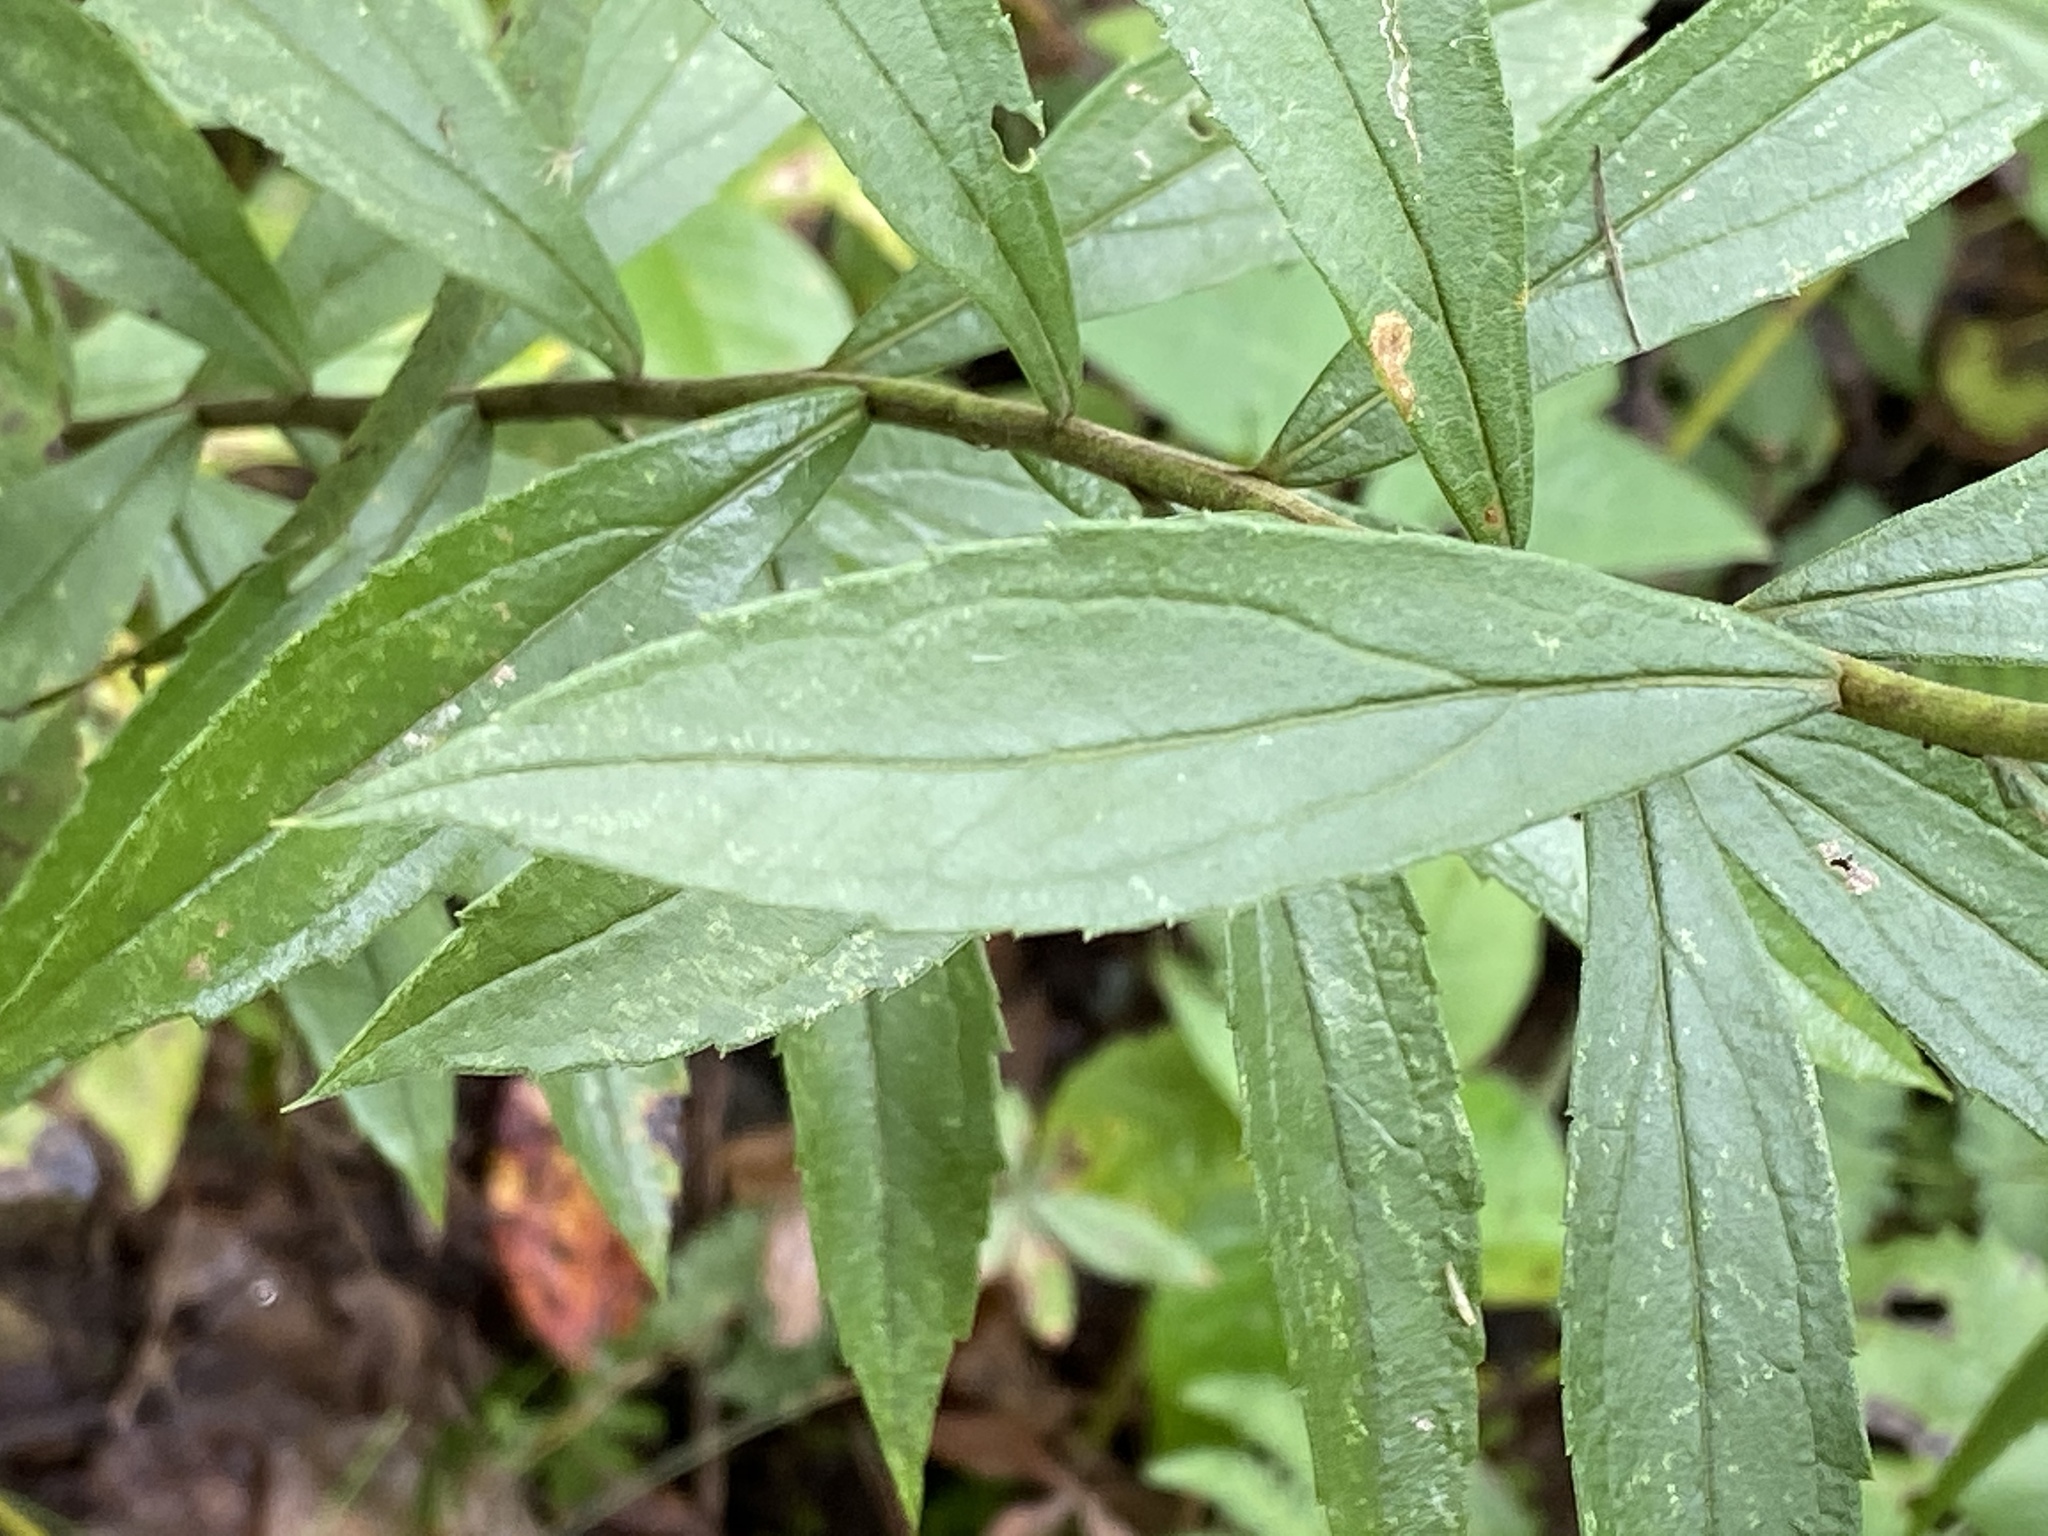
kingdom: Plantae
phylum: Tracheophyta
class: Magnoliopsida
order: Asterales
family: Asteraceae
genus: Solidago
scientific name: Solidago altissima
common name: Late goldenrod
